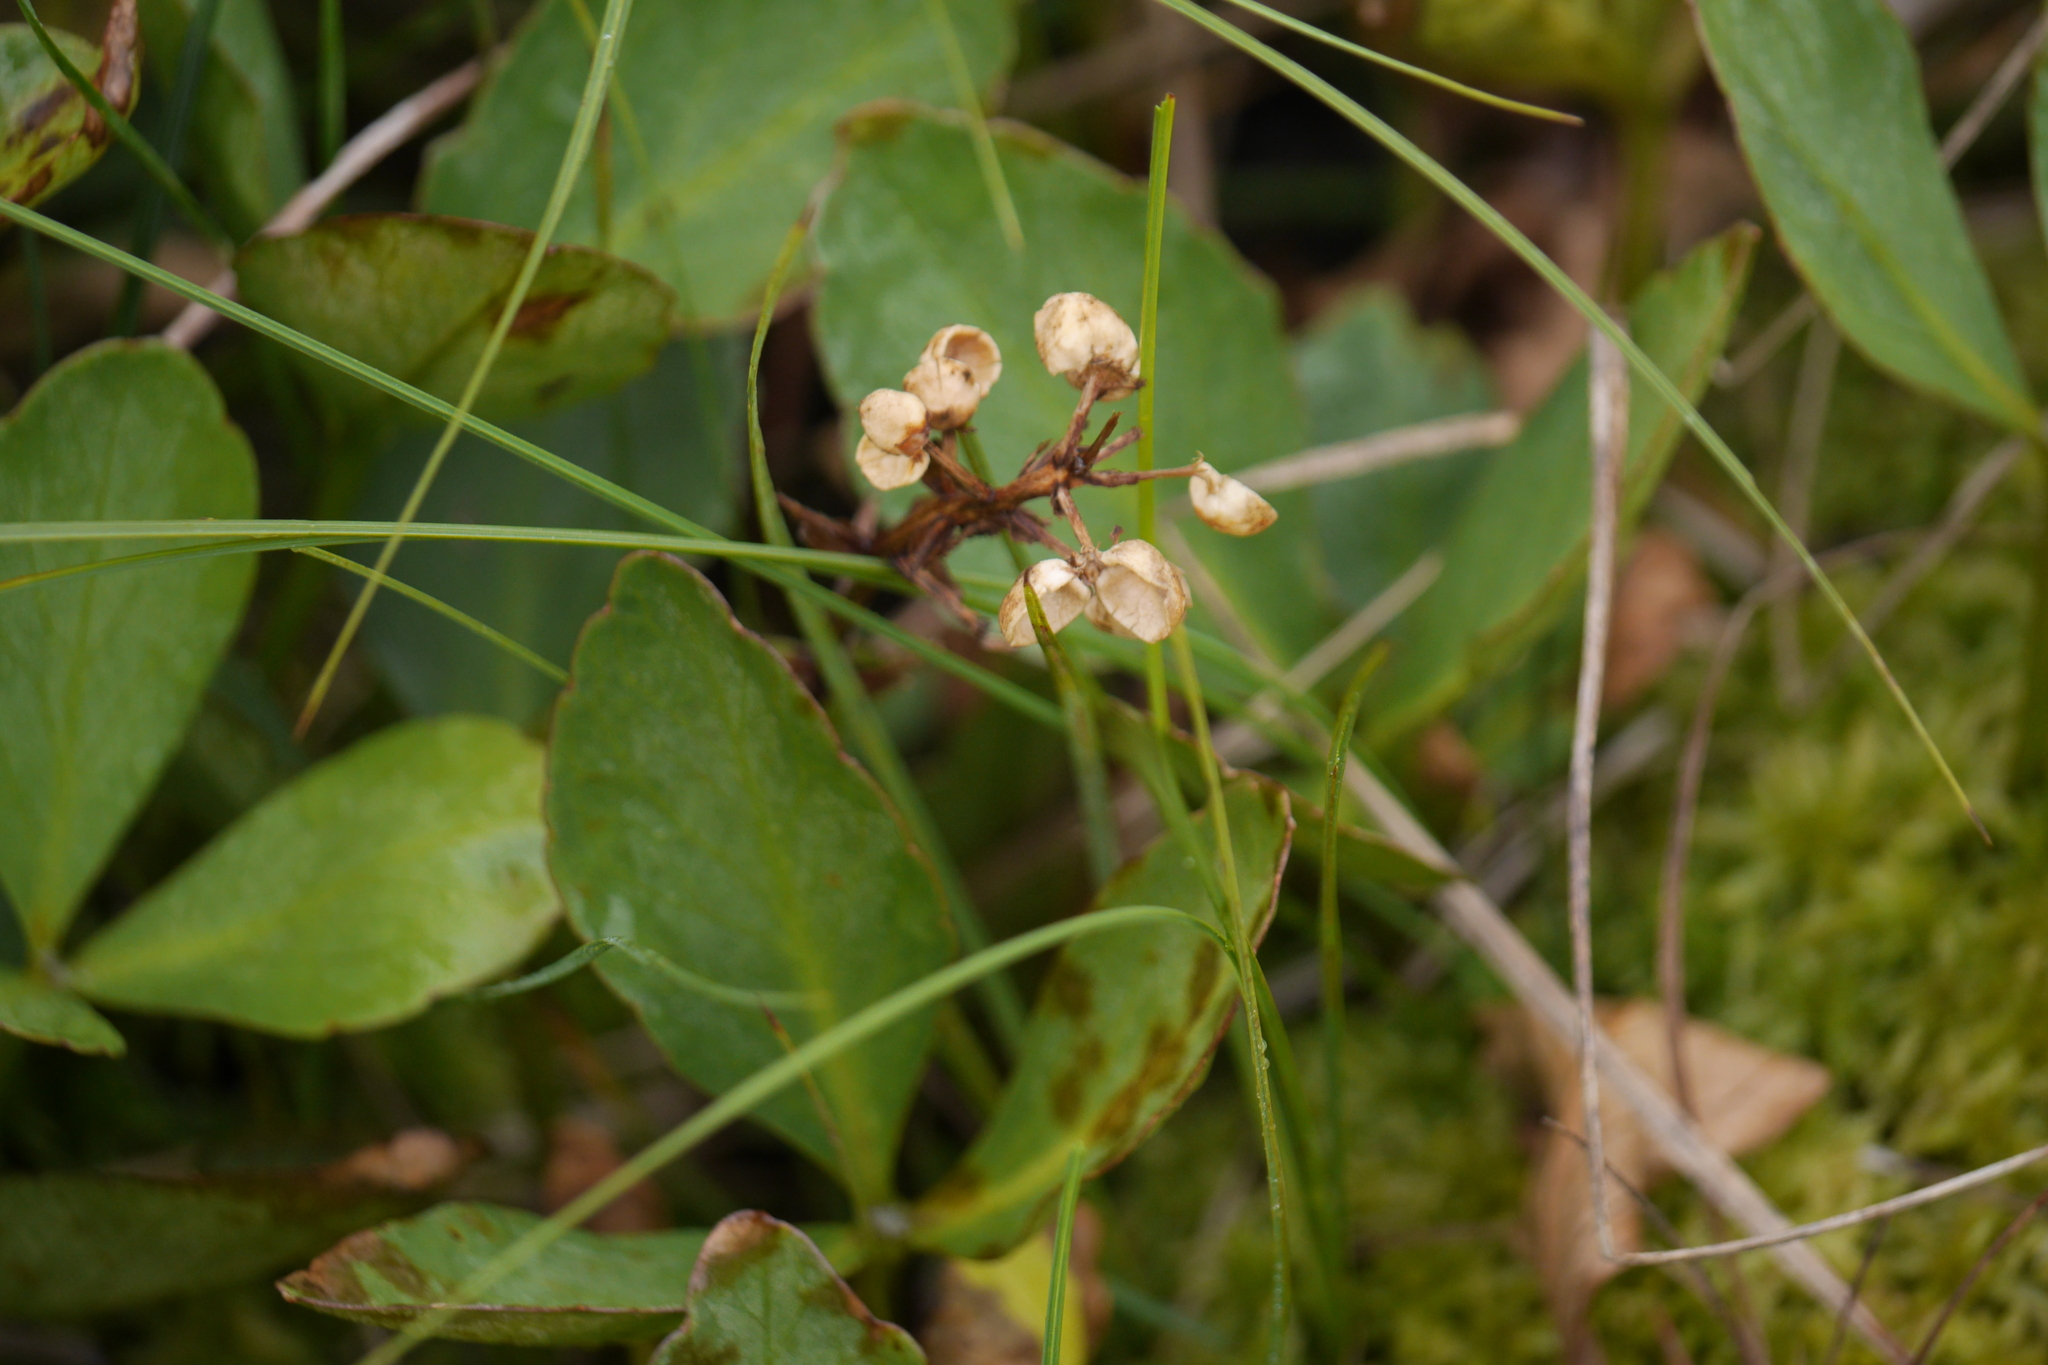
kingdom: Plantae
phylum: Tracheophyta
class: Magnoliopsida
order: Asterales
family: Menyanthaceae
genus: Menyanthes
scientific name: Menyanthes trifoliata
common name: Bogbean
